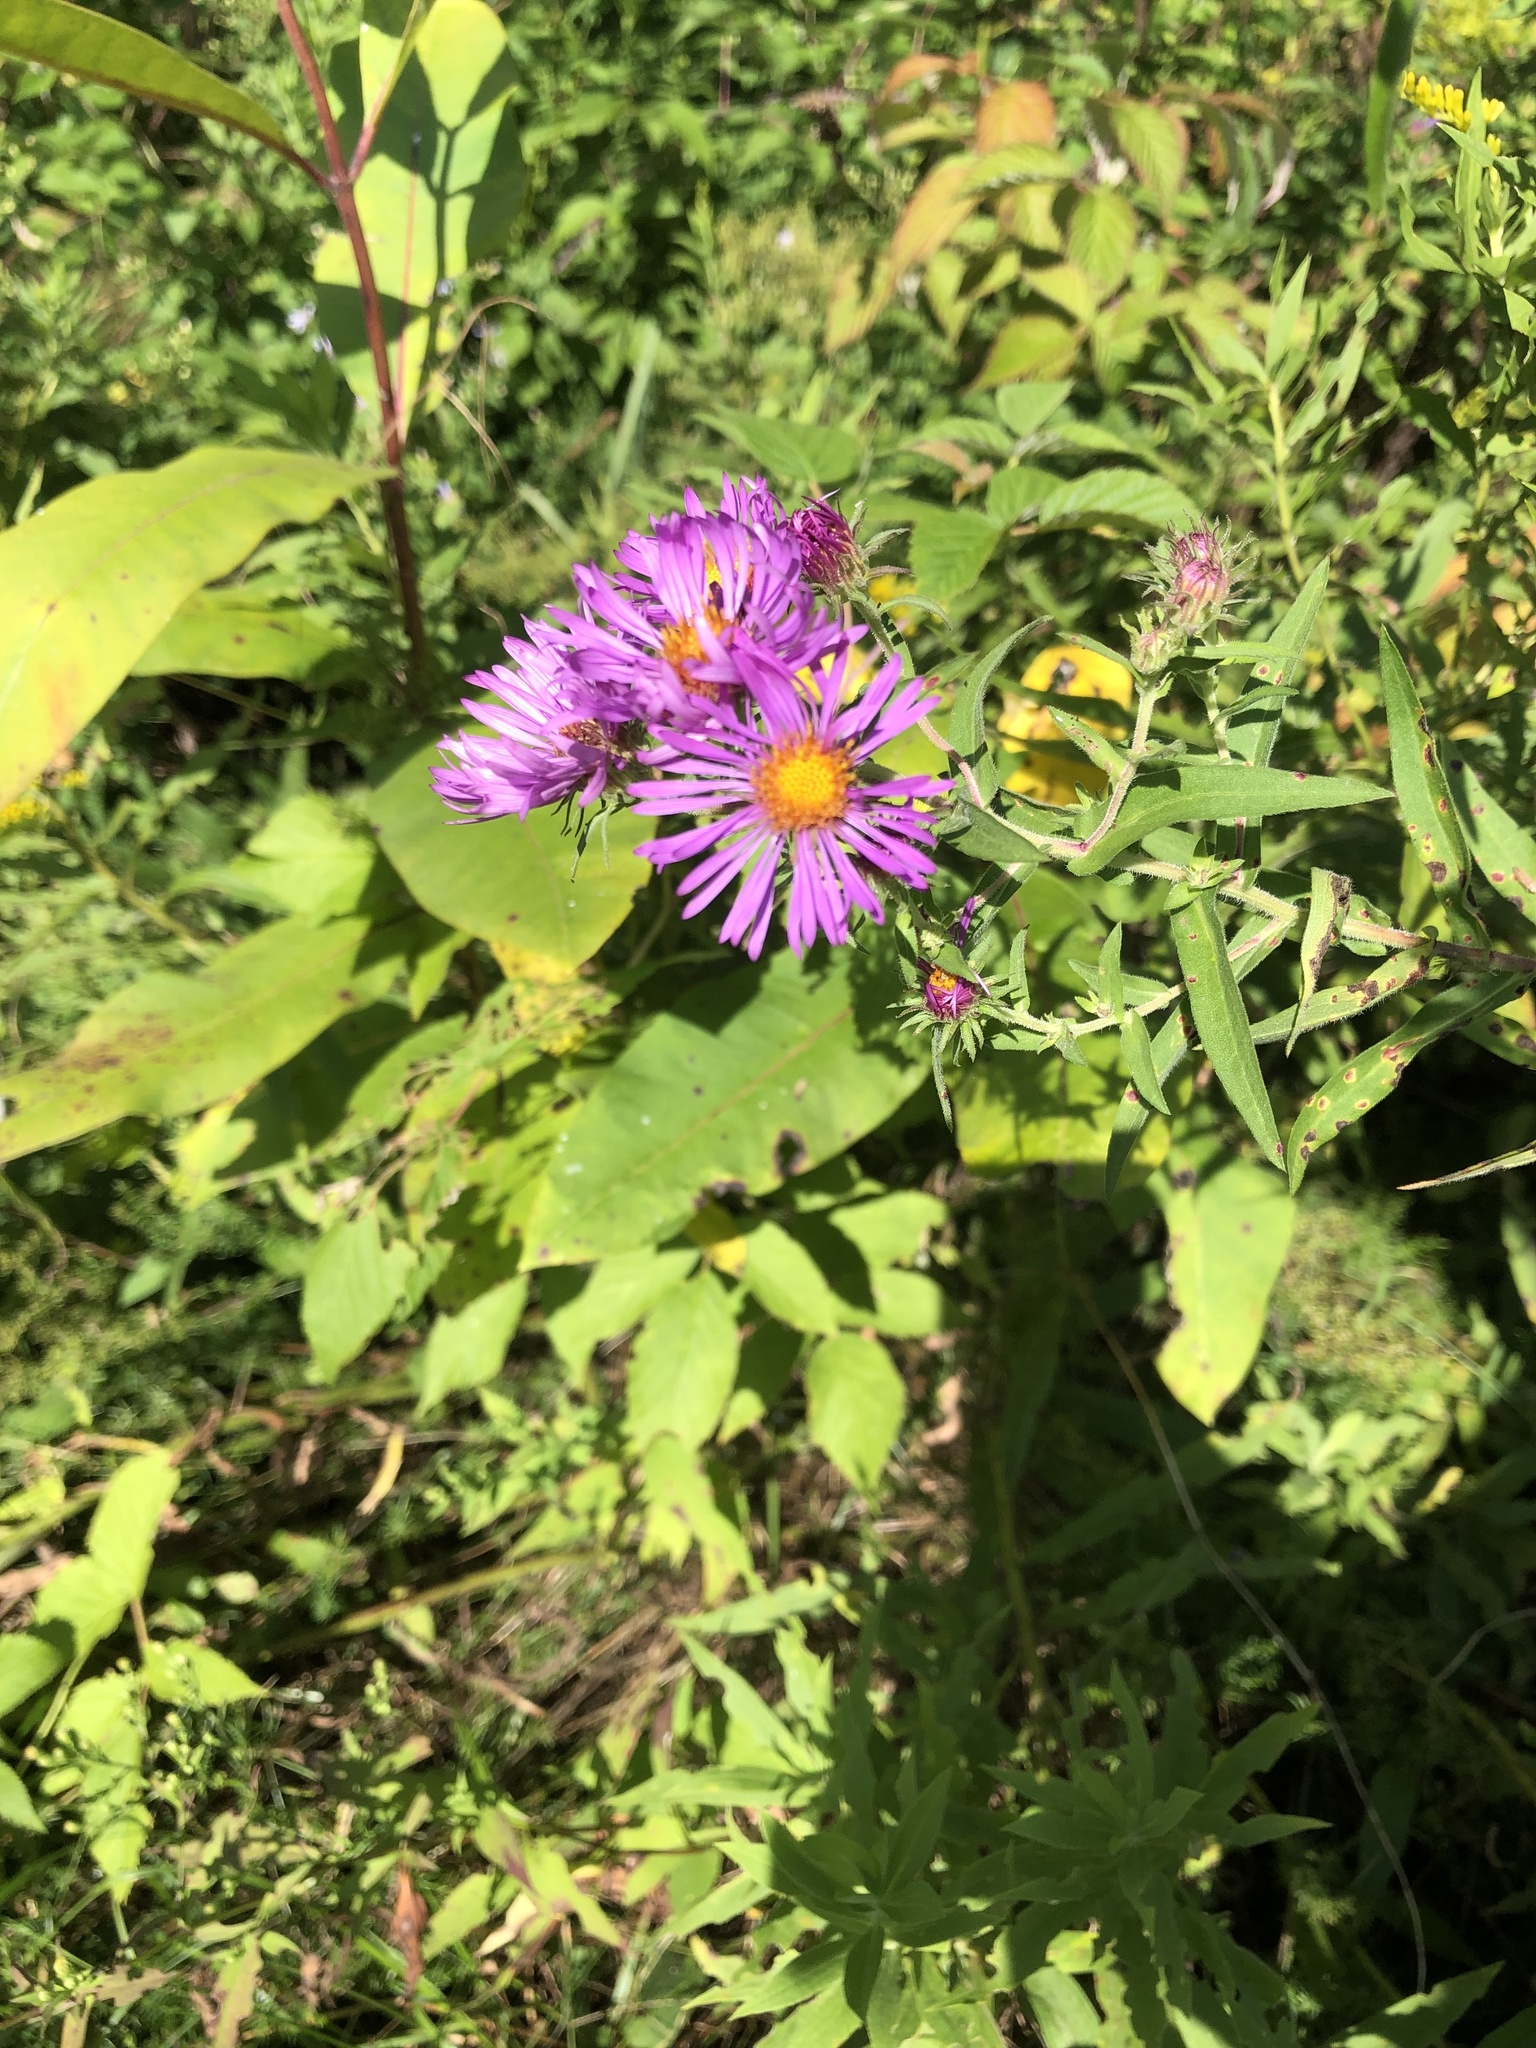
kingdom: Plantae
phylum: Tracheophyta
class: Magnoliopsida
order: Asterales
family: Asteraceae
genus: Symphyotrichum
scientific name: Symphyotrichum novae-angliae
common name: Michaelmas daisy
